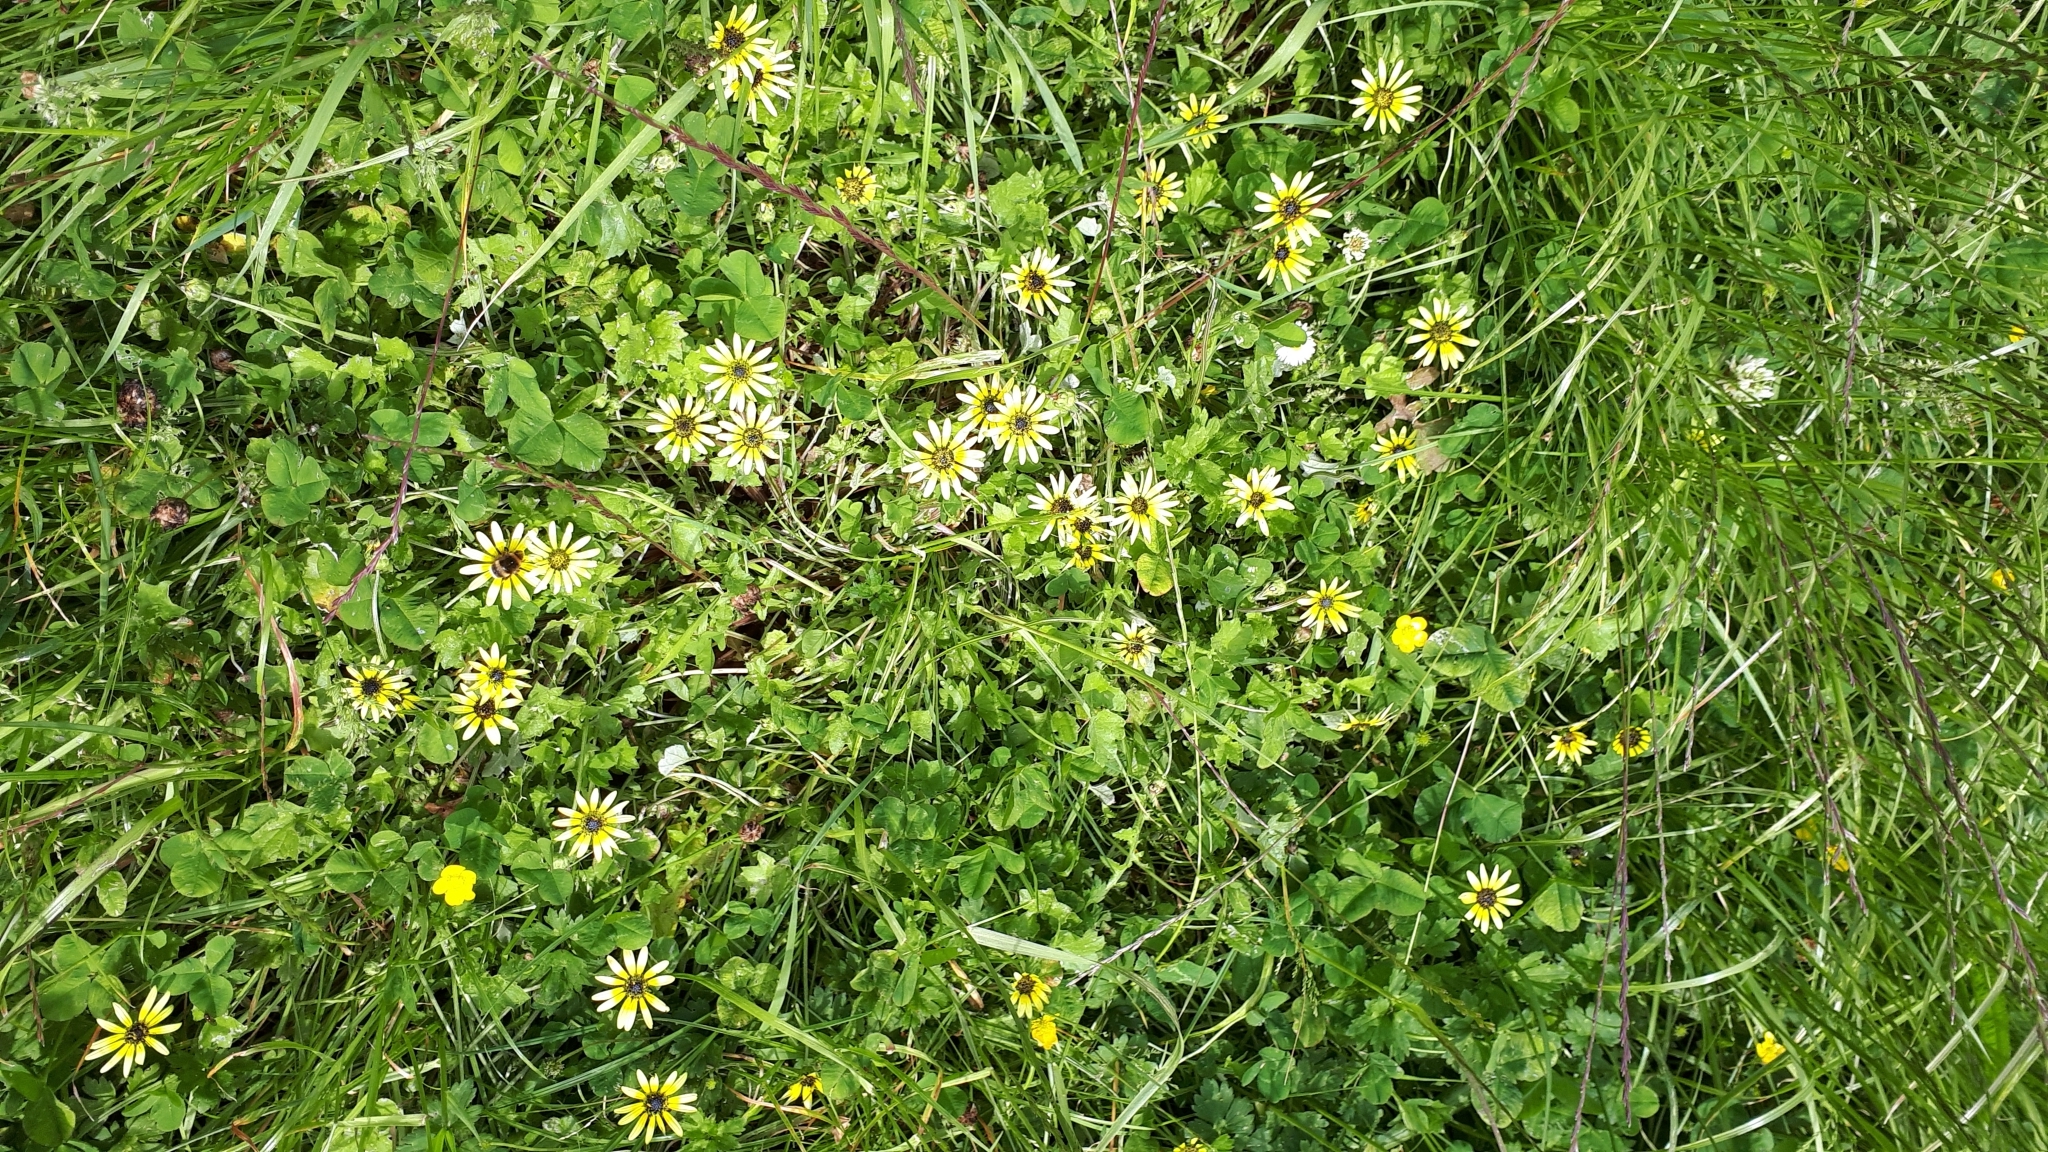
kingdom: Plantae
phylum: Tracheophyta
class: Magnoliopsida
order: Asterales
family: Asteraceae
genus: Arctotheca
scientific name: Arctotheca calendula
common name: Capeweed
